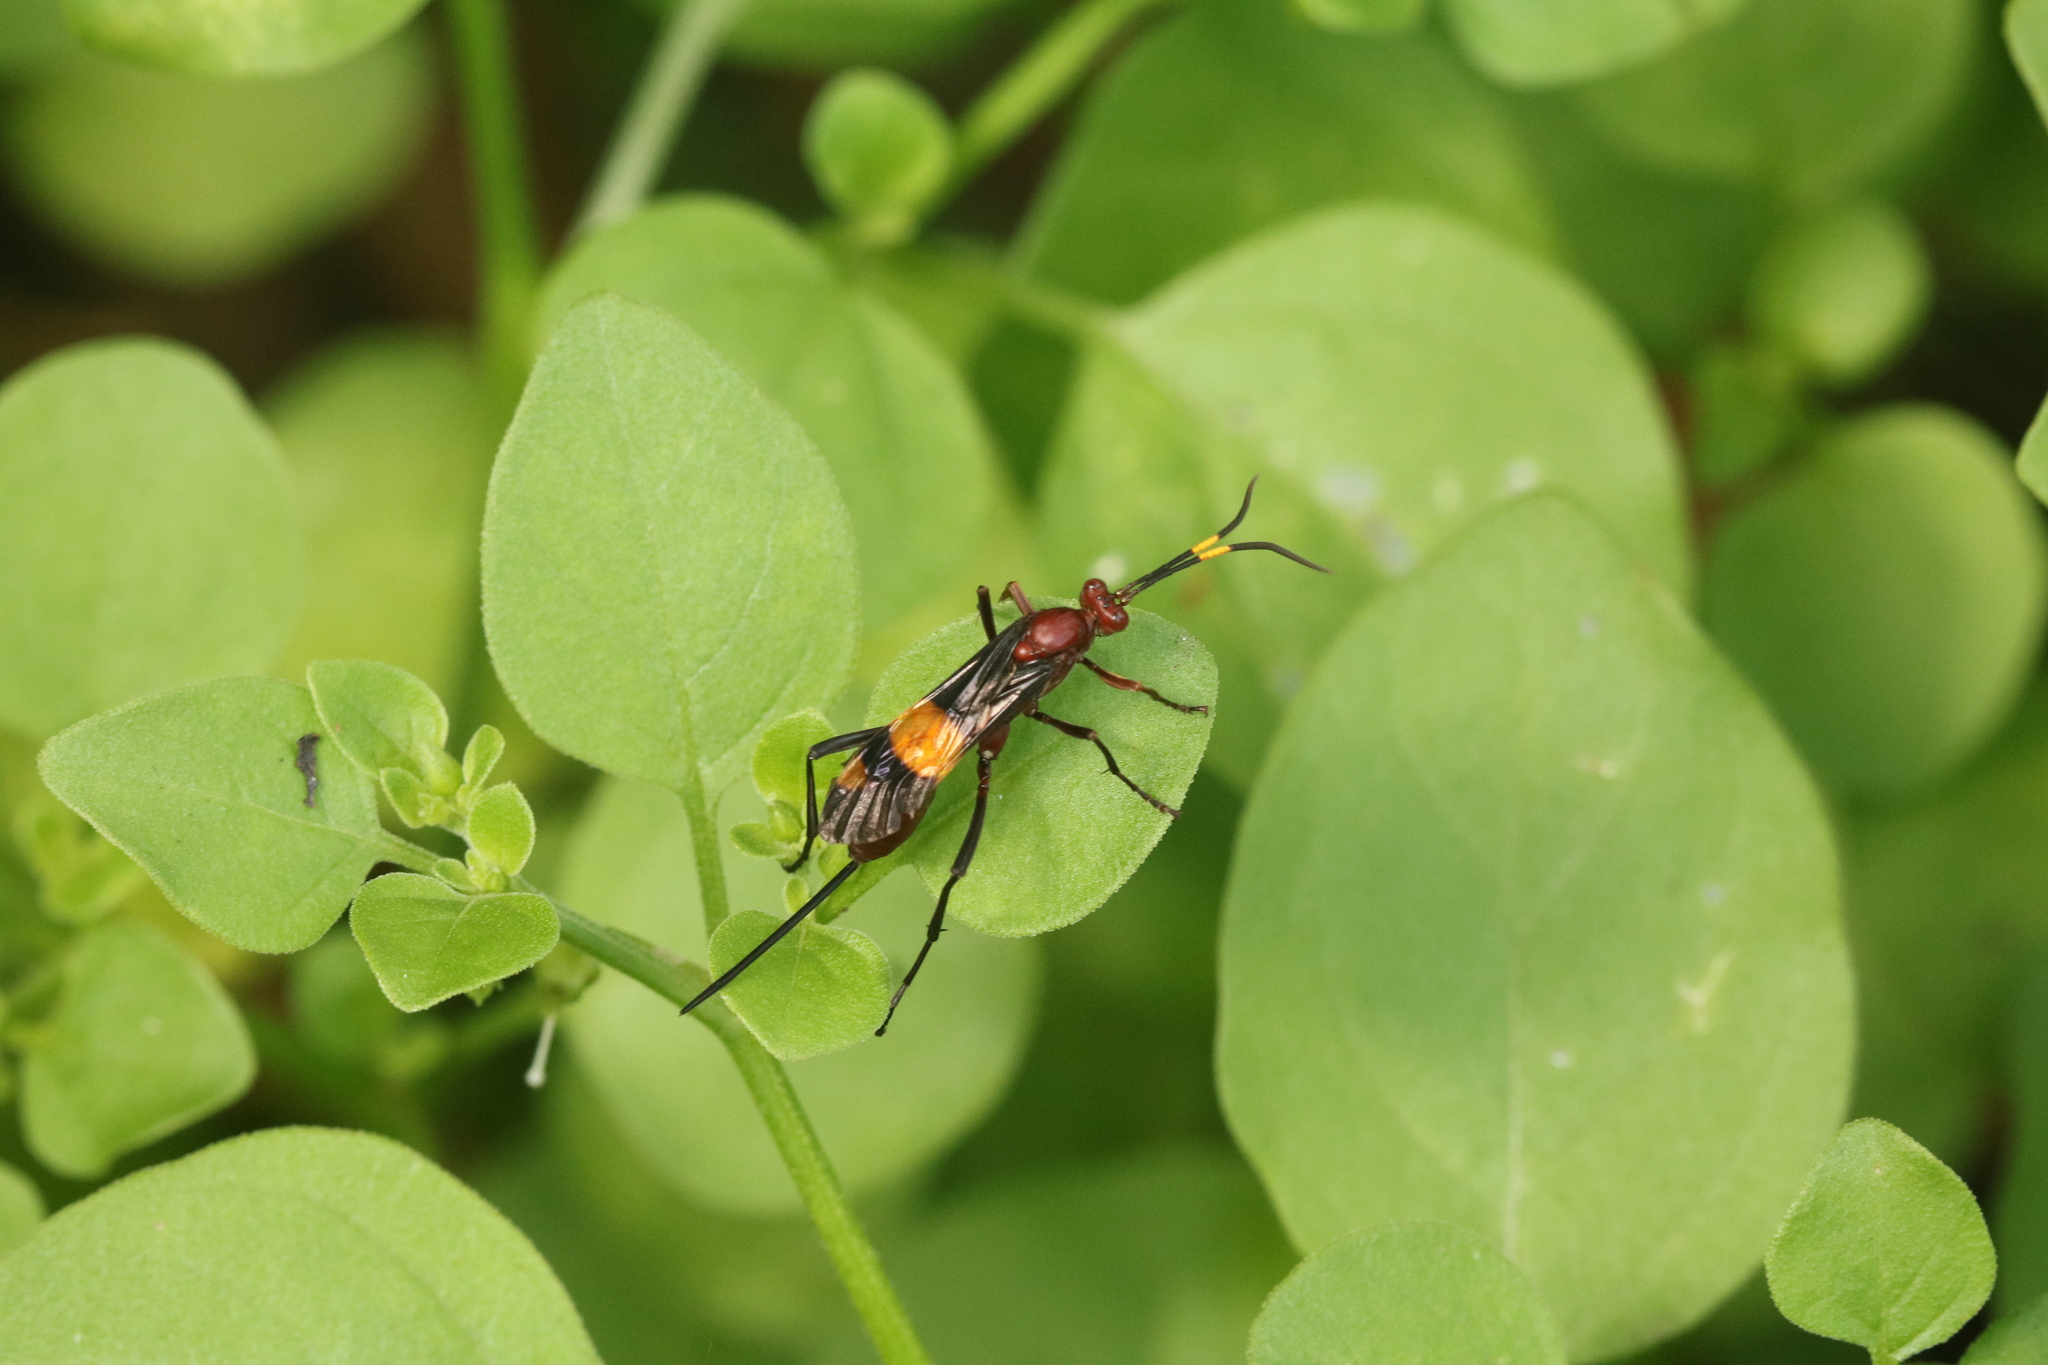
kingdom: Animalia
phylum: Arthropoda
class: Insecta
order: Hymenoptera
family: Ichneumonidae
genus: Compsocryptus
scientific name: Compsocryptus melanostigma
